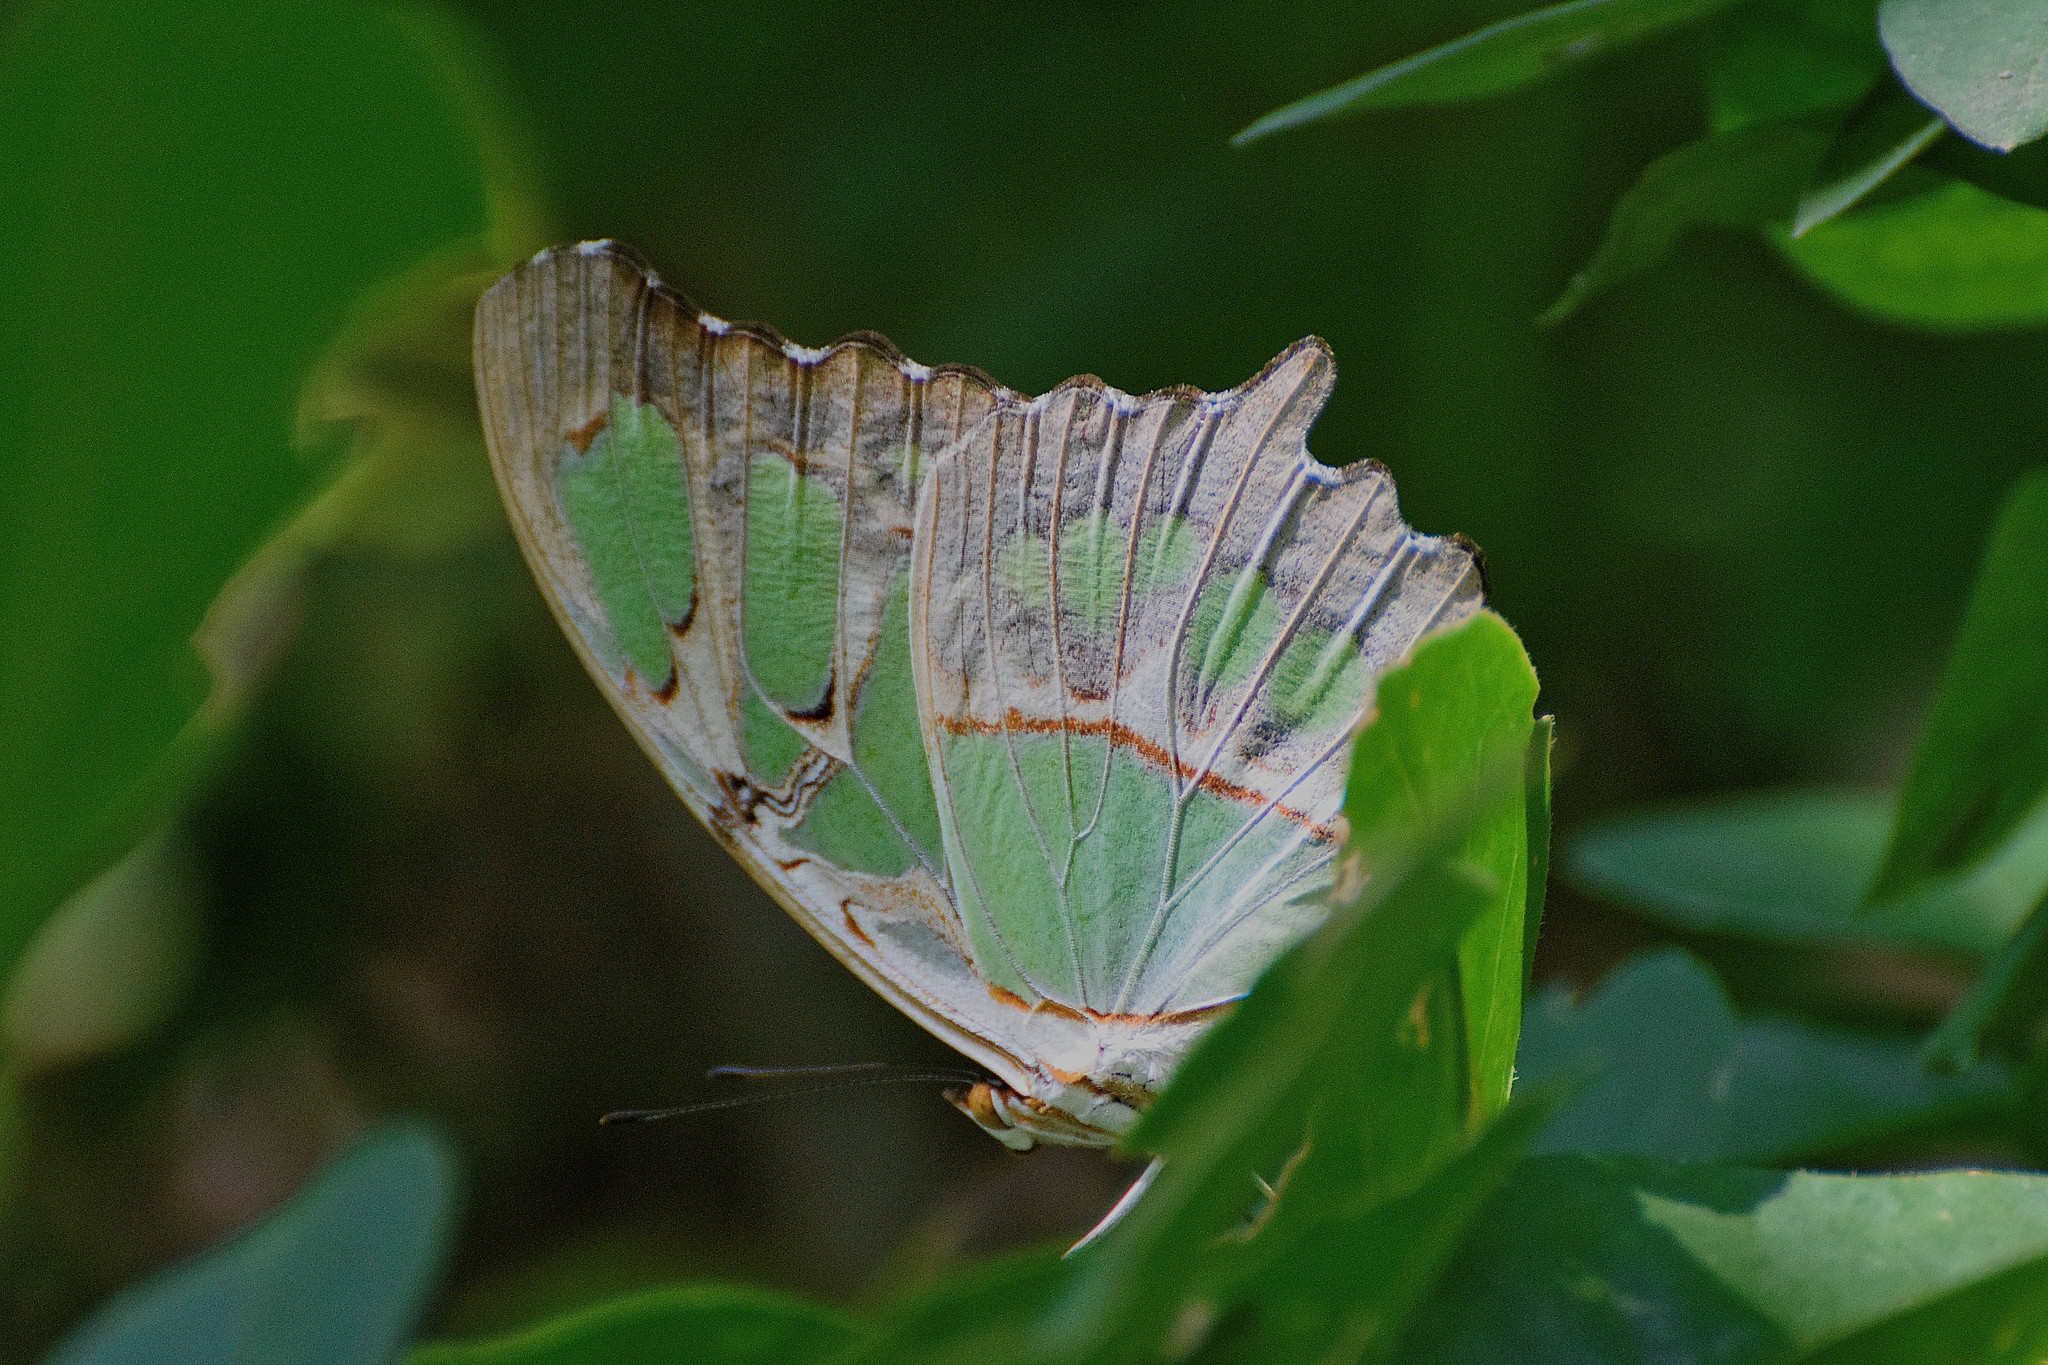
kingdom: Animalia
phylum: Arthropoda
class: Insecta
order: Lepidoptera
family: Nymphalidae
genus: Siproeta
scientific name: Siproeta stelenes
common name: Malachite
